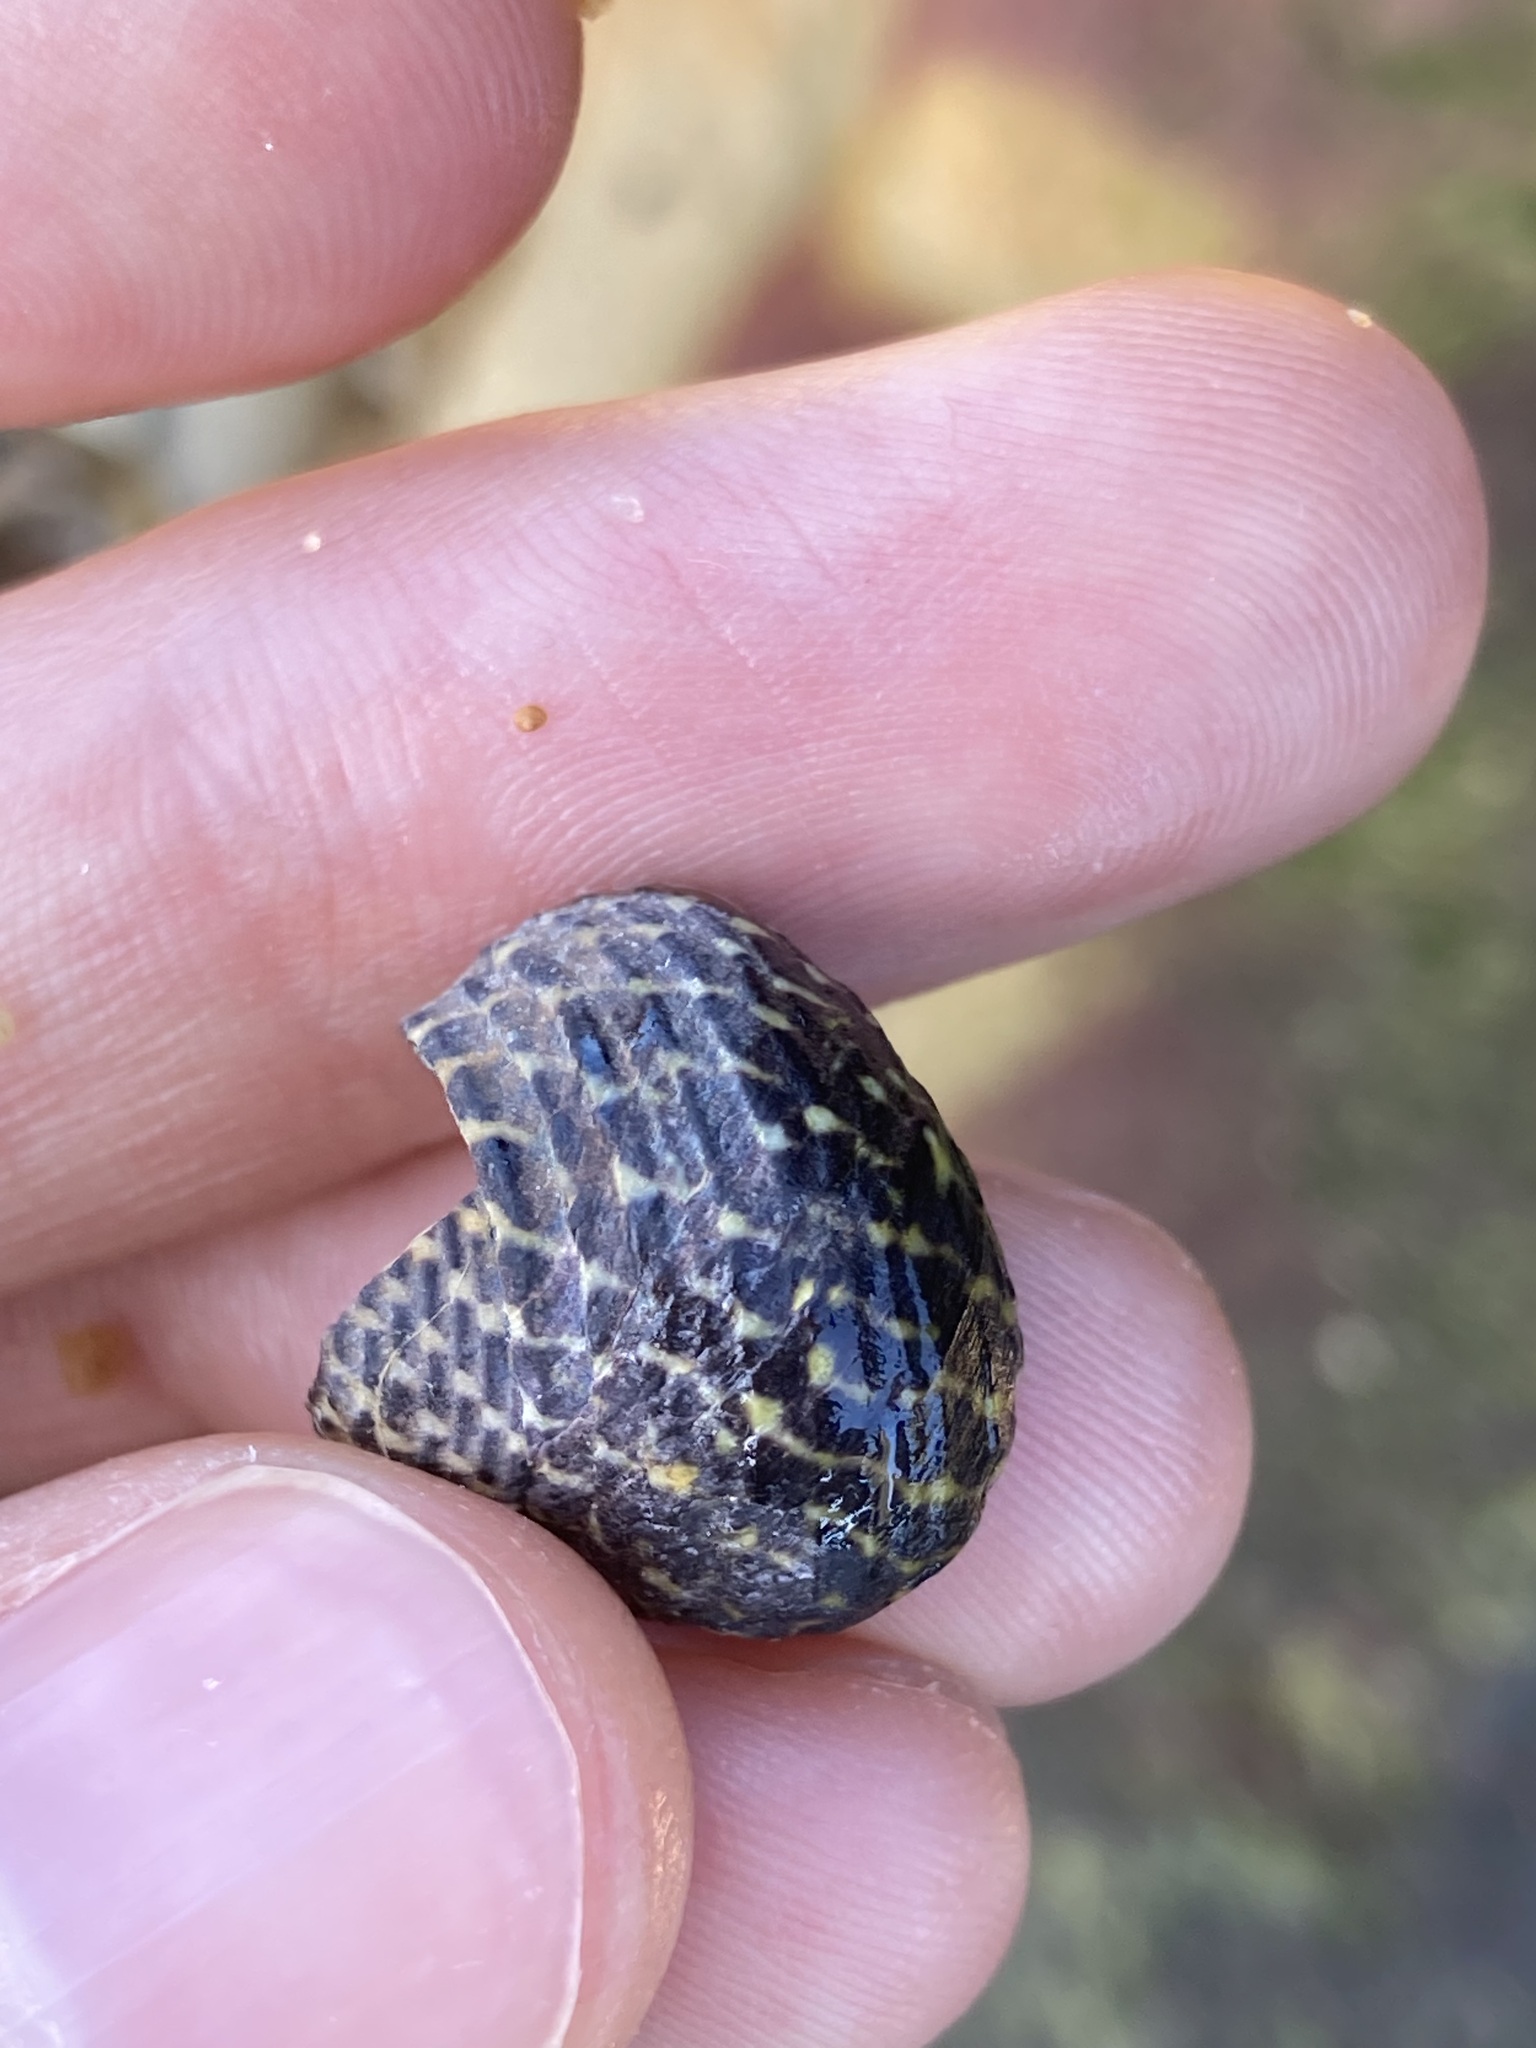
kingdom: Animalia
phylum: Mollusca
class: Gastropoda
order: Trochida
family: Trochidae
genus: Diloma
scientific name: Diloma concameratum
